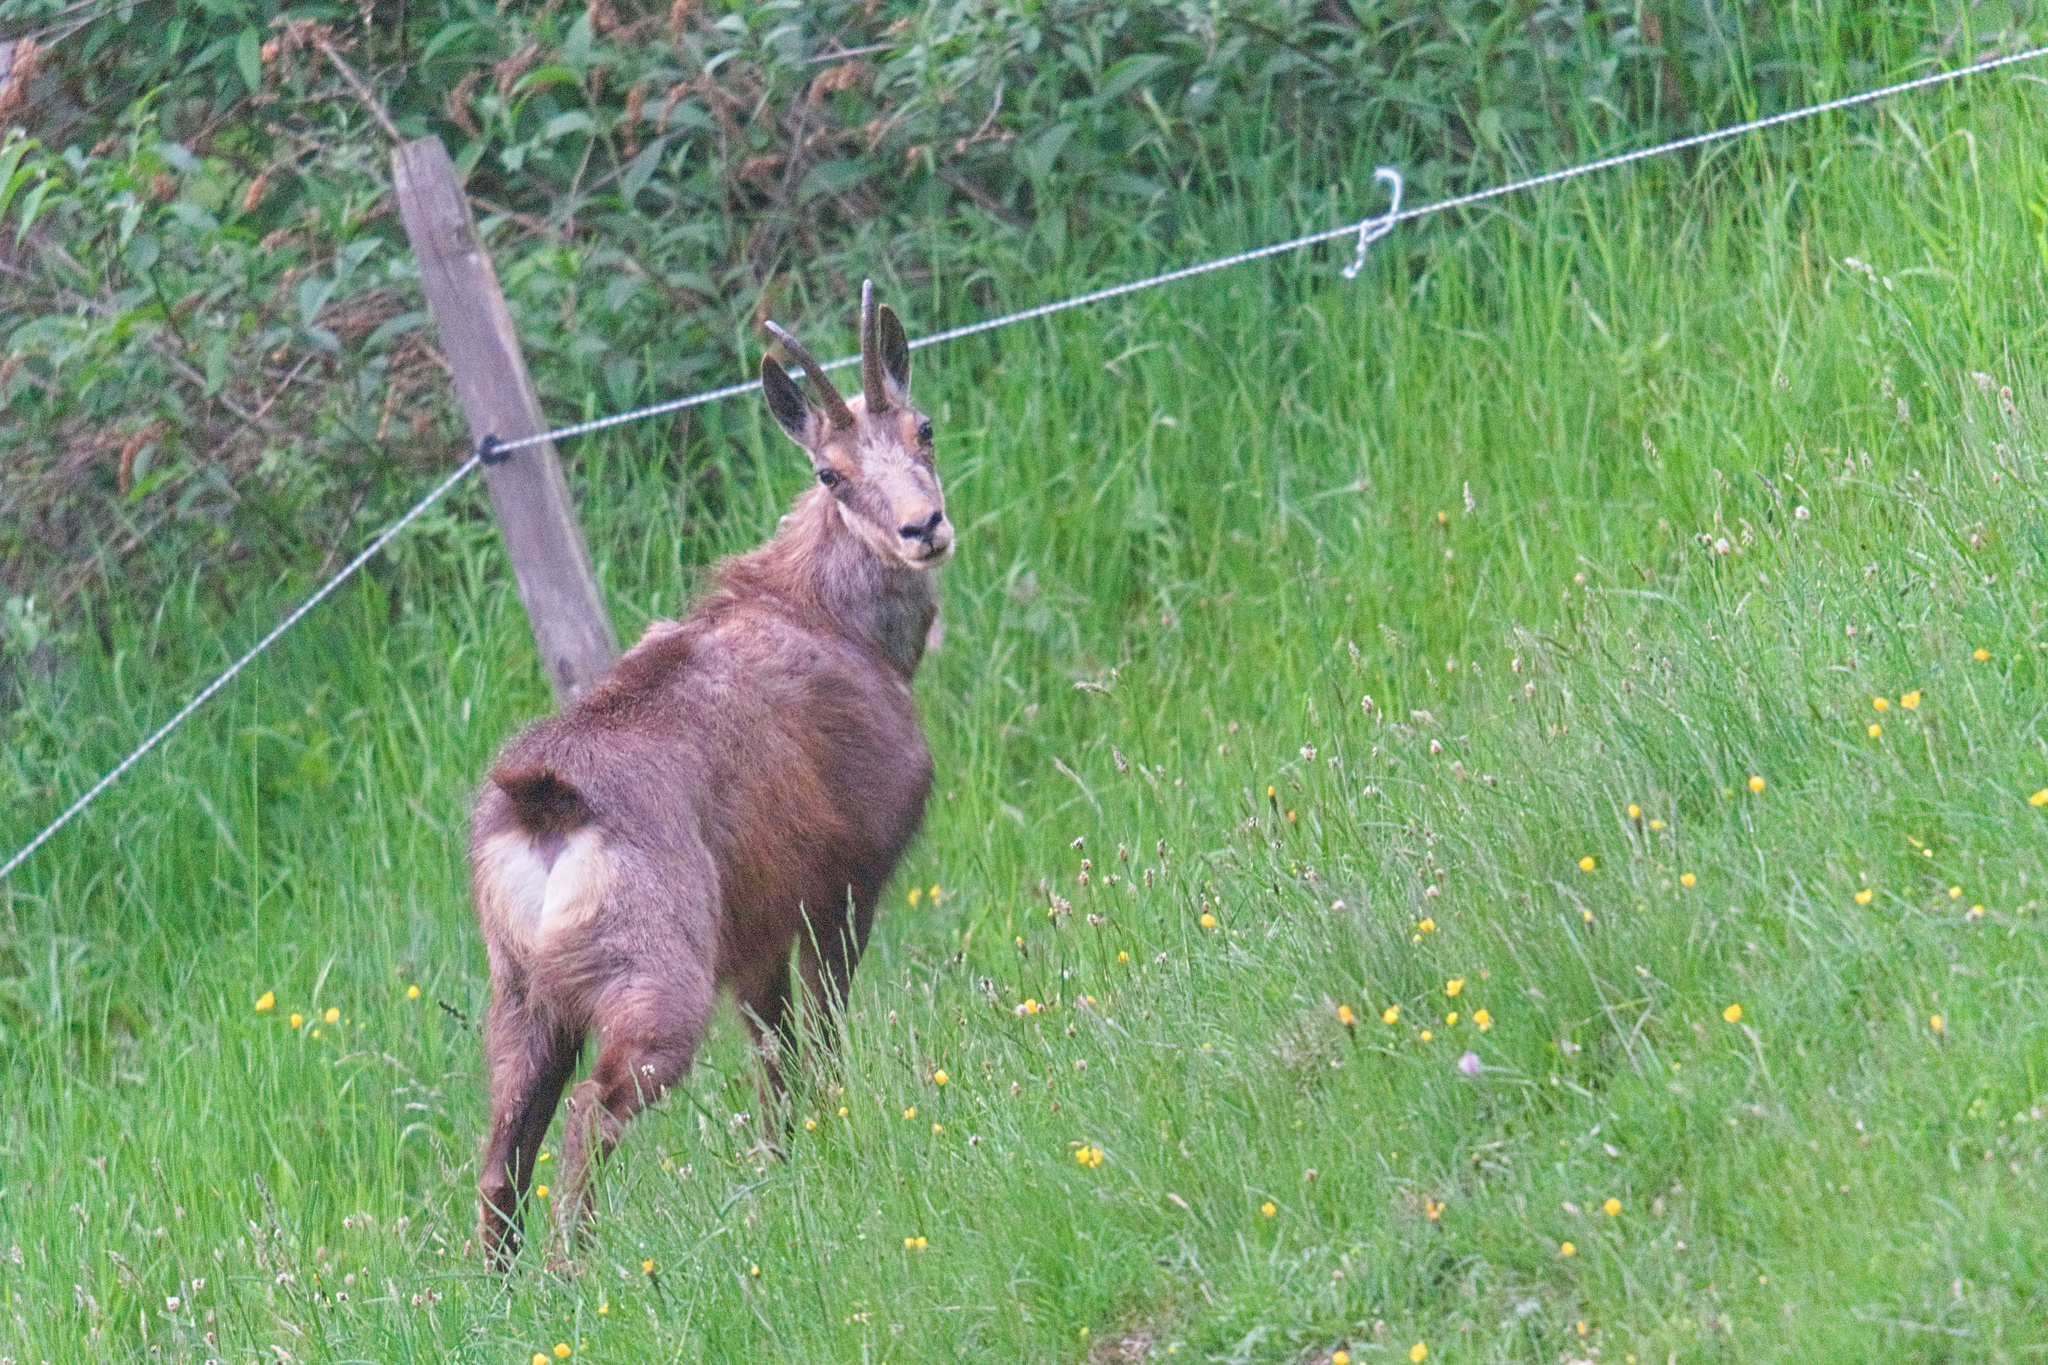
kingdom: Animalia
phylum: Chordata
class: Mammalia
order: Artiodactyla
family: Bovidae
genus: Rupicapra
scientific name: Rupicapra rupicapra
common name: Chamois
